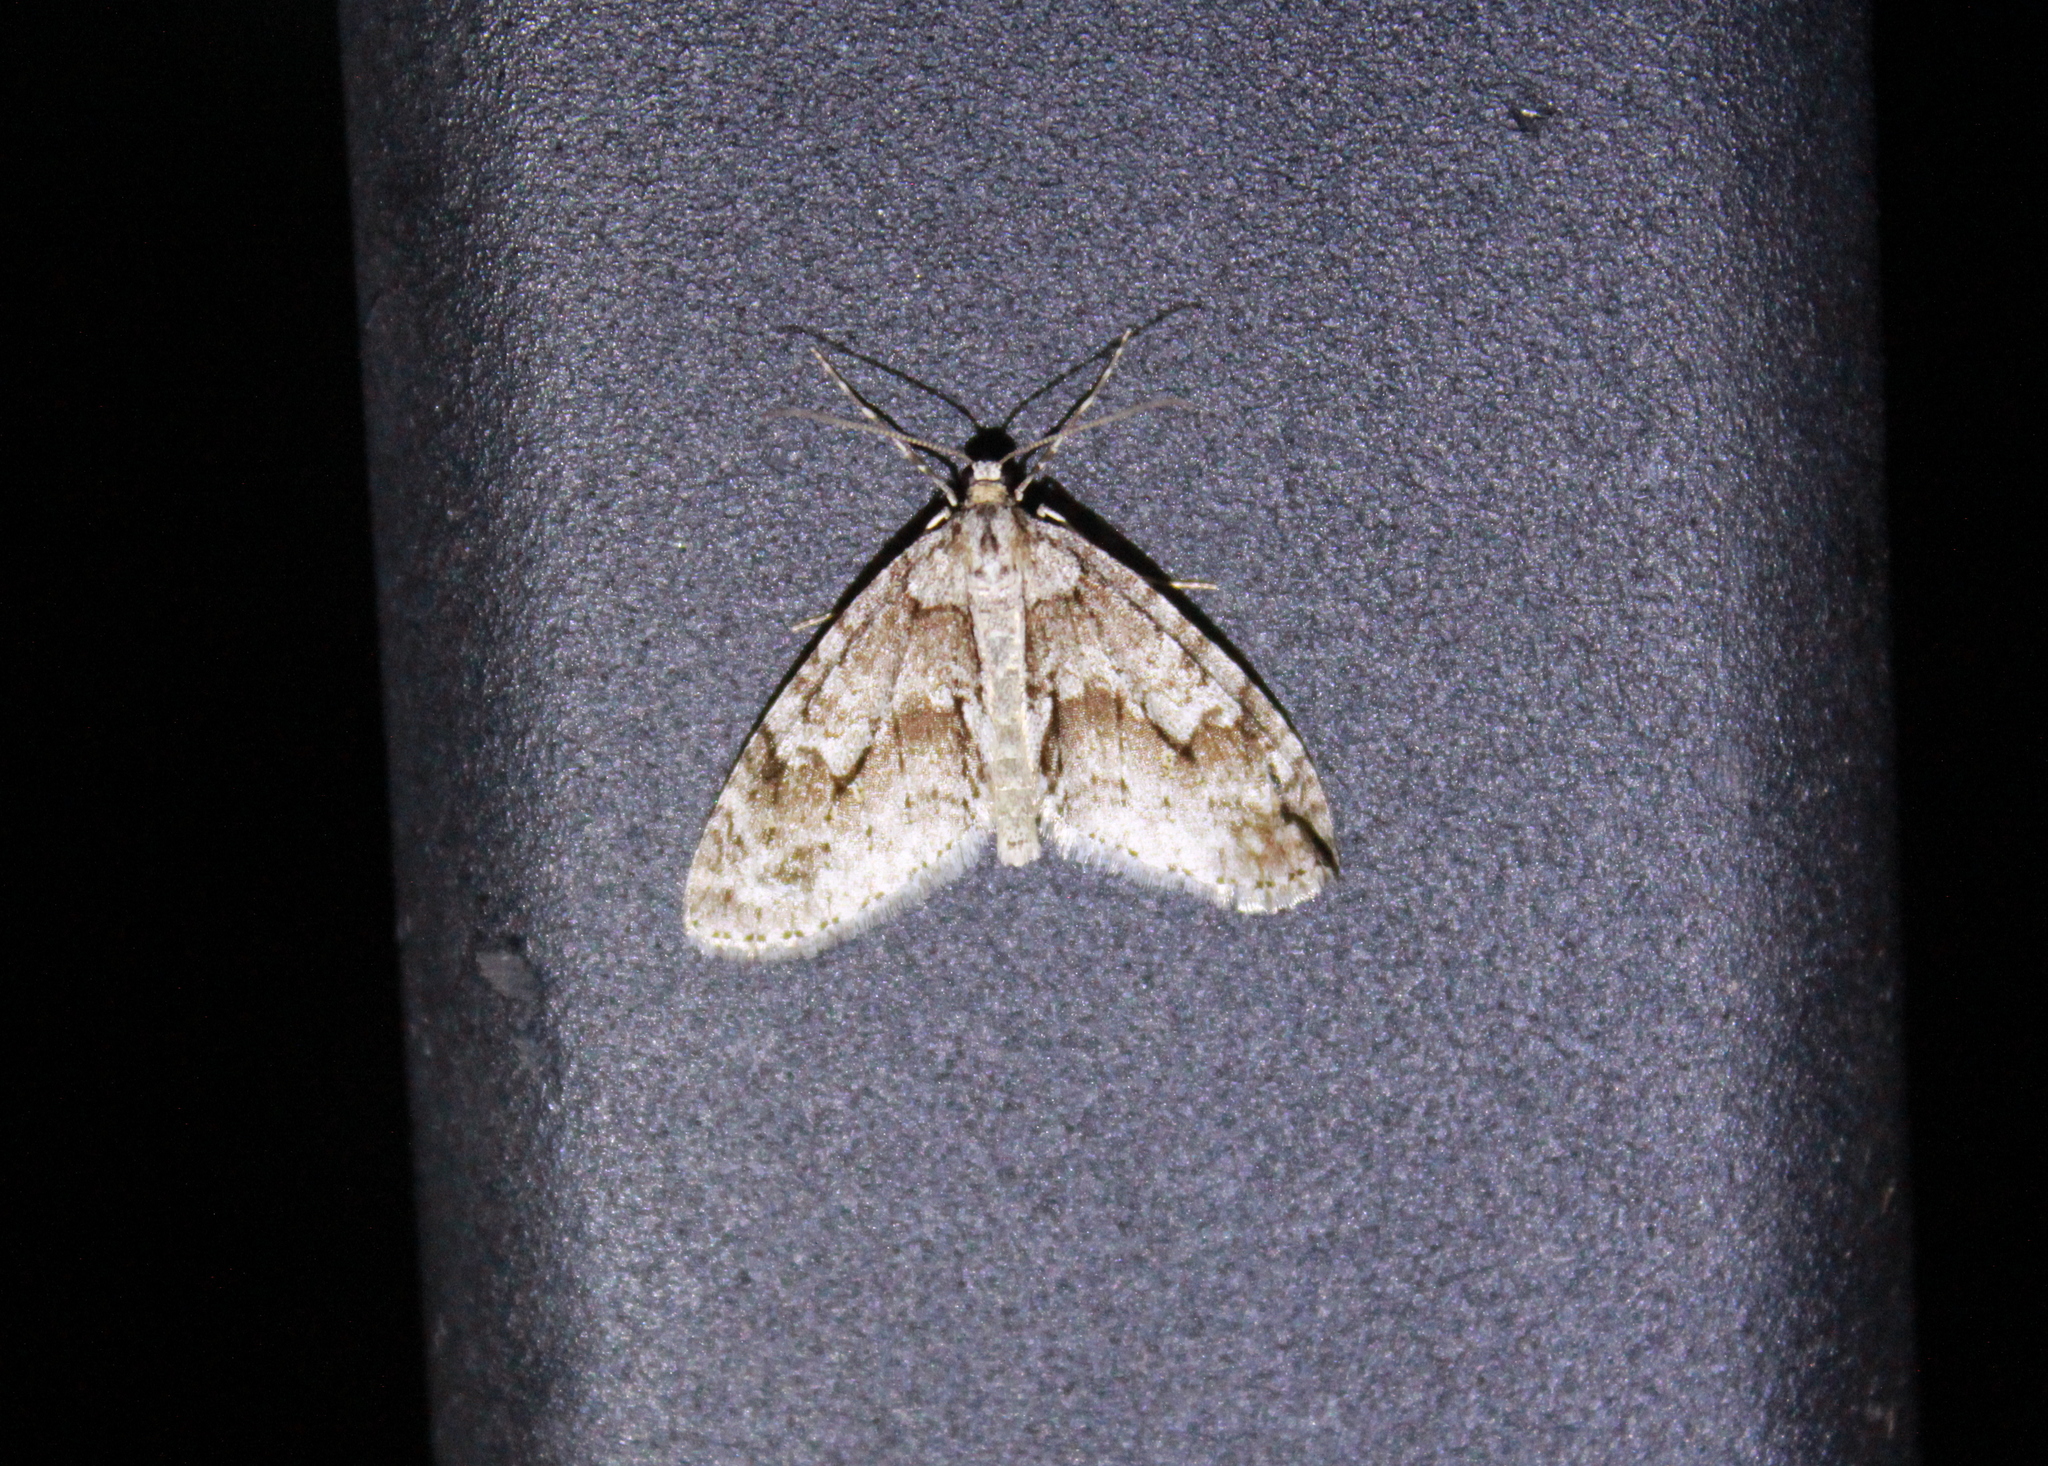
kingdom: Animalia
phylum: Arthropoda
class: Insecta
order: Lepidoptera
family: Geometridae
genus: Cladara
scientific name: Cladara limitaria
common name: Mottled gray carpet
